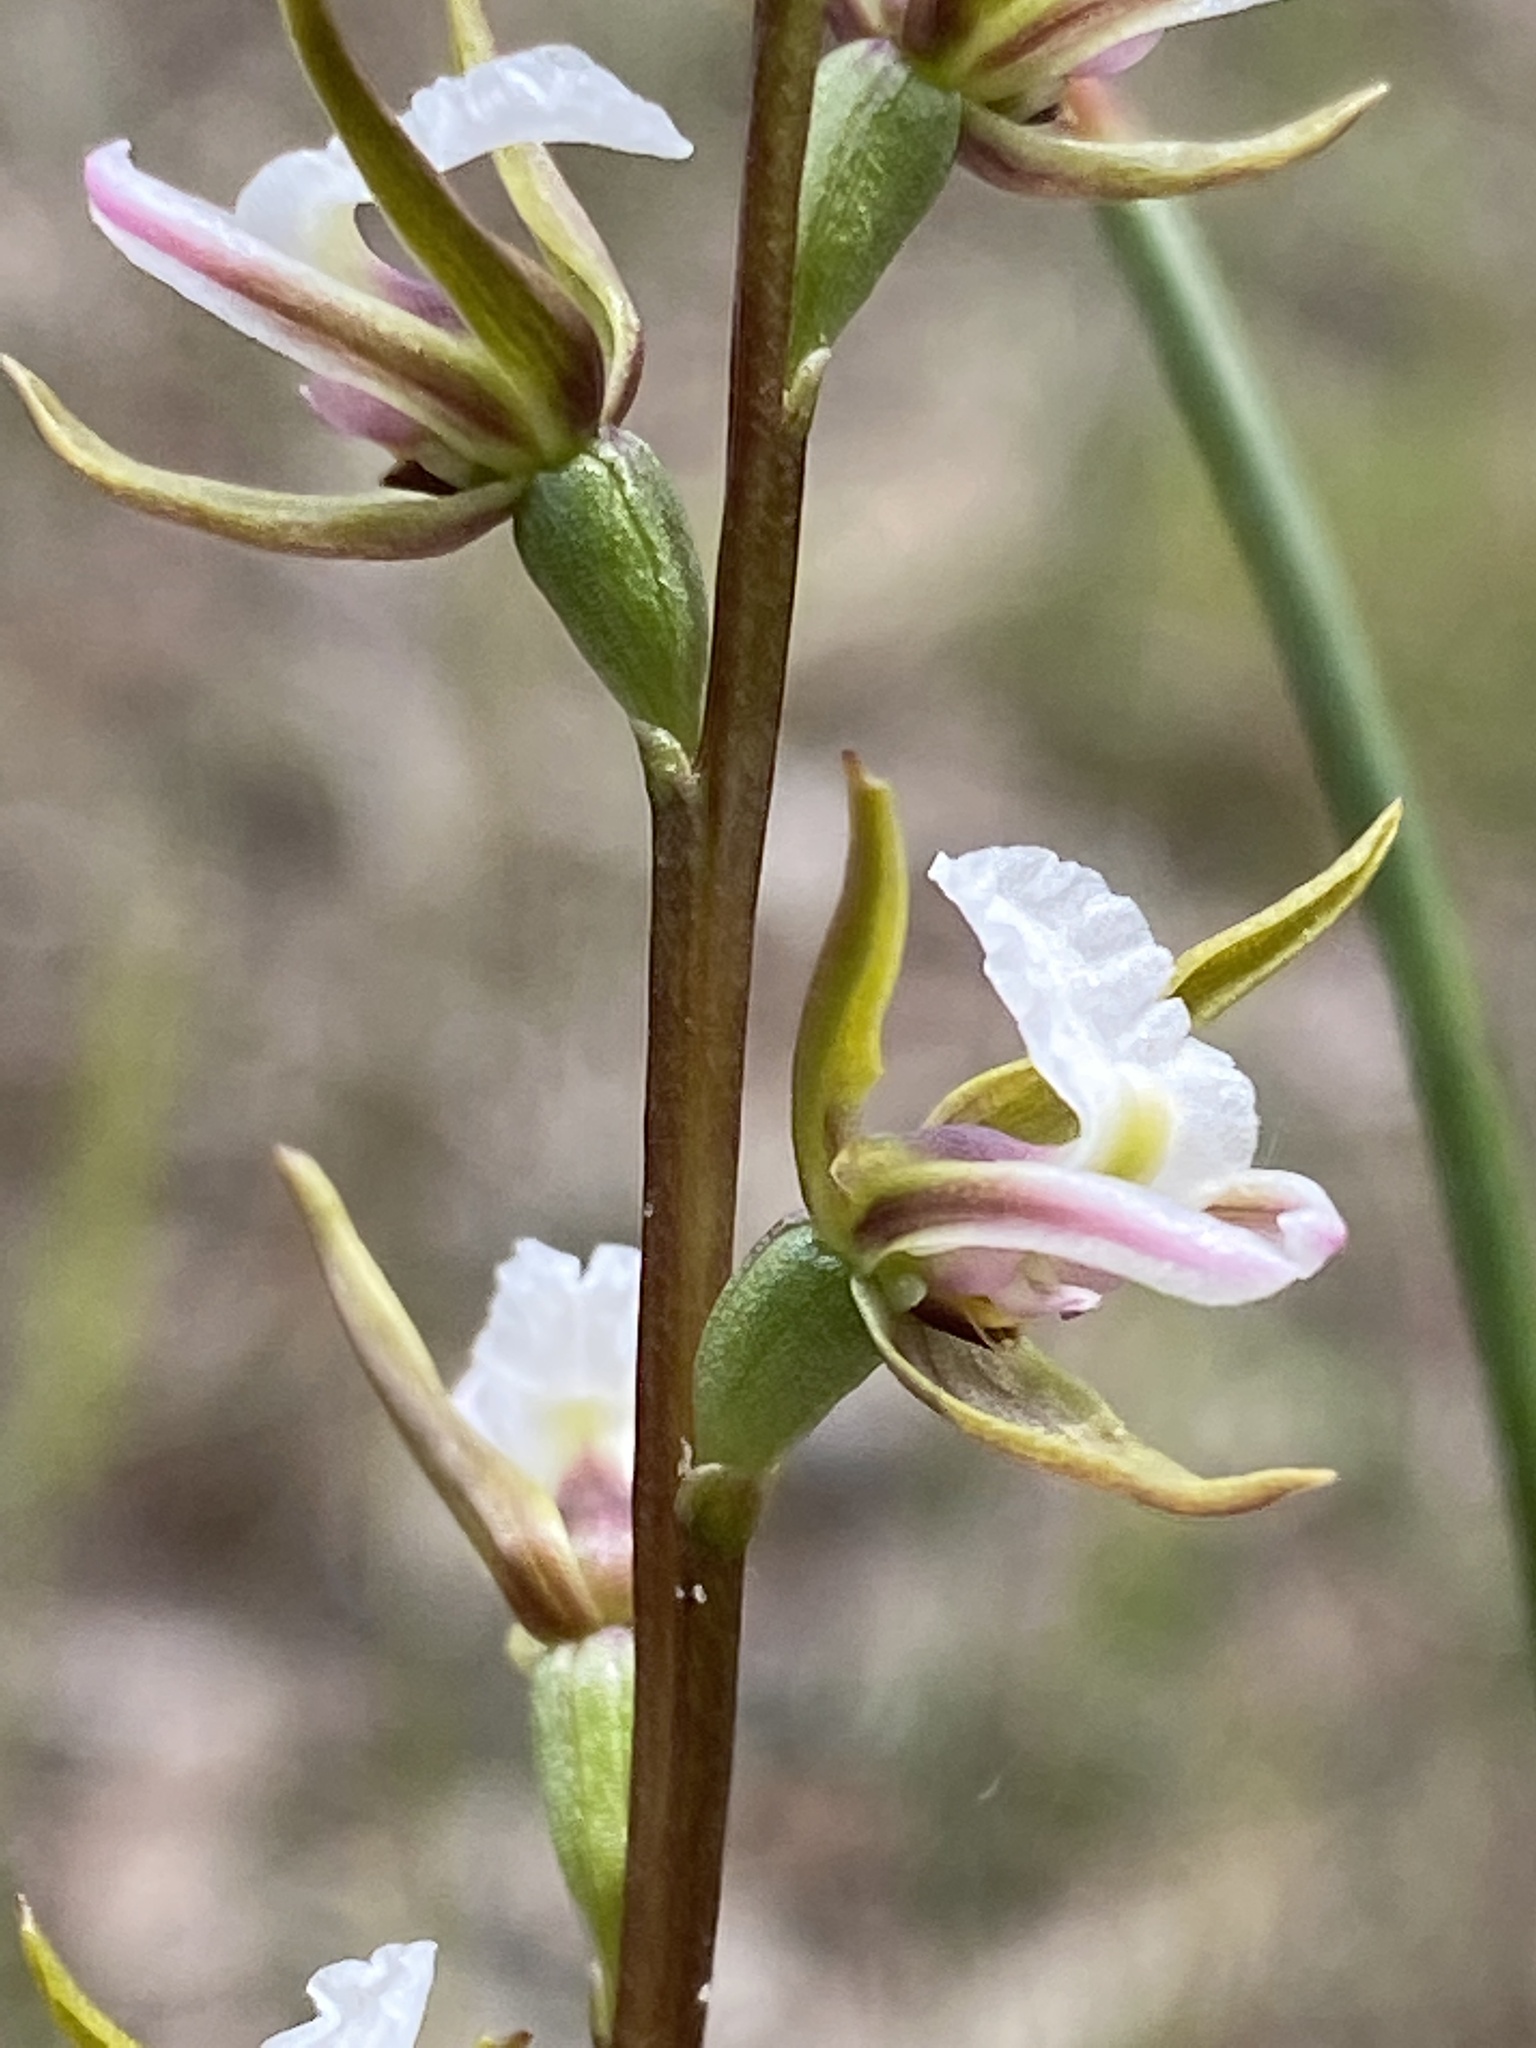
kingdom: Plantae
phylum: Tracheophyta
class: Liliopsida
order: Asparagales
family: Orchidaceae
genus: Prasophyllum
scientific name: Prasophyllum odoratum
